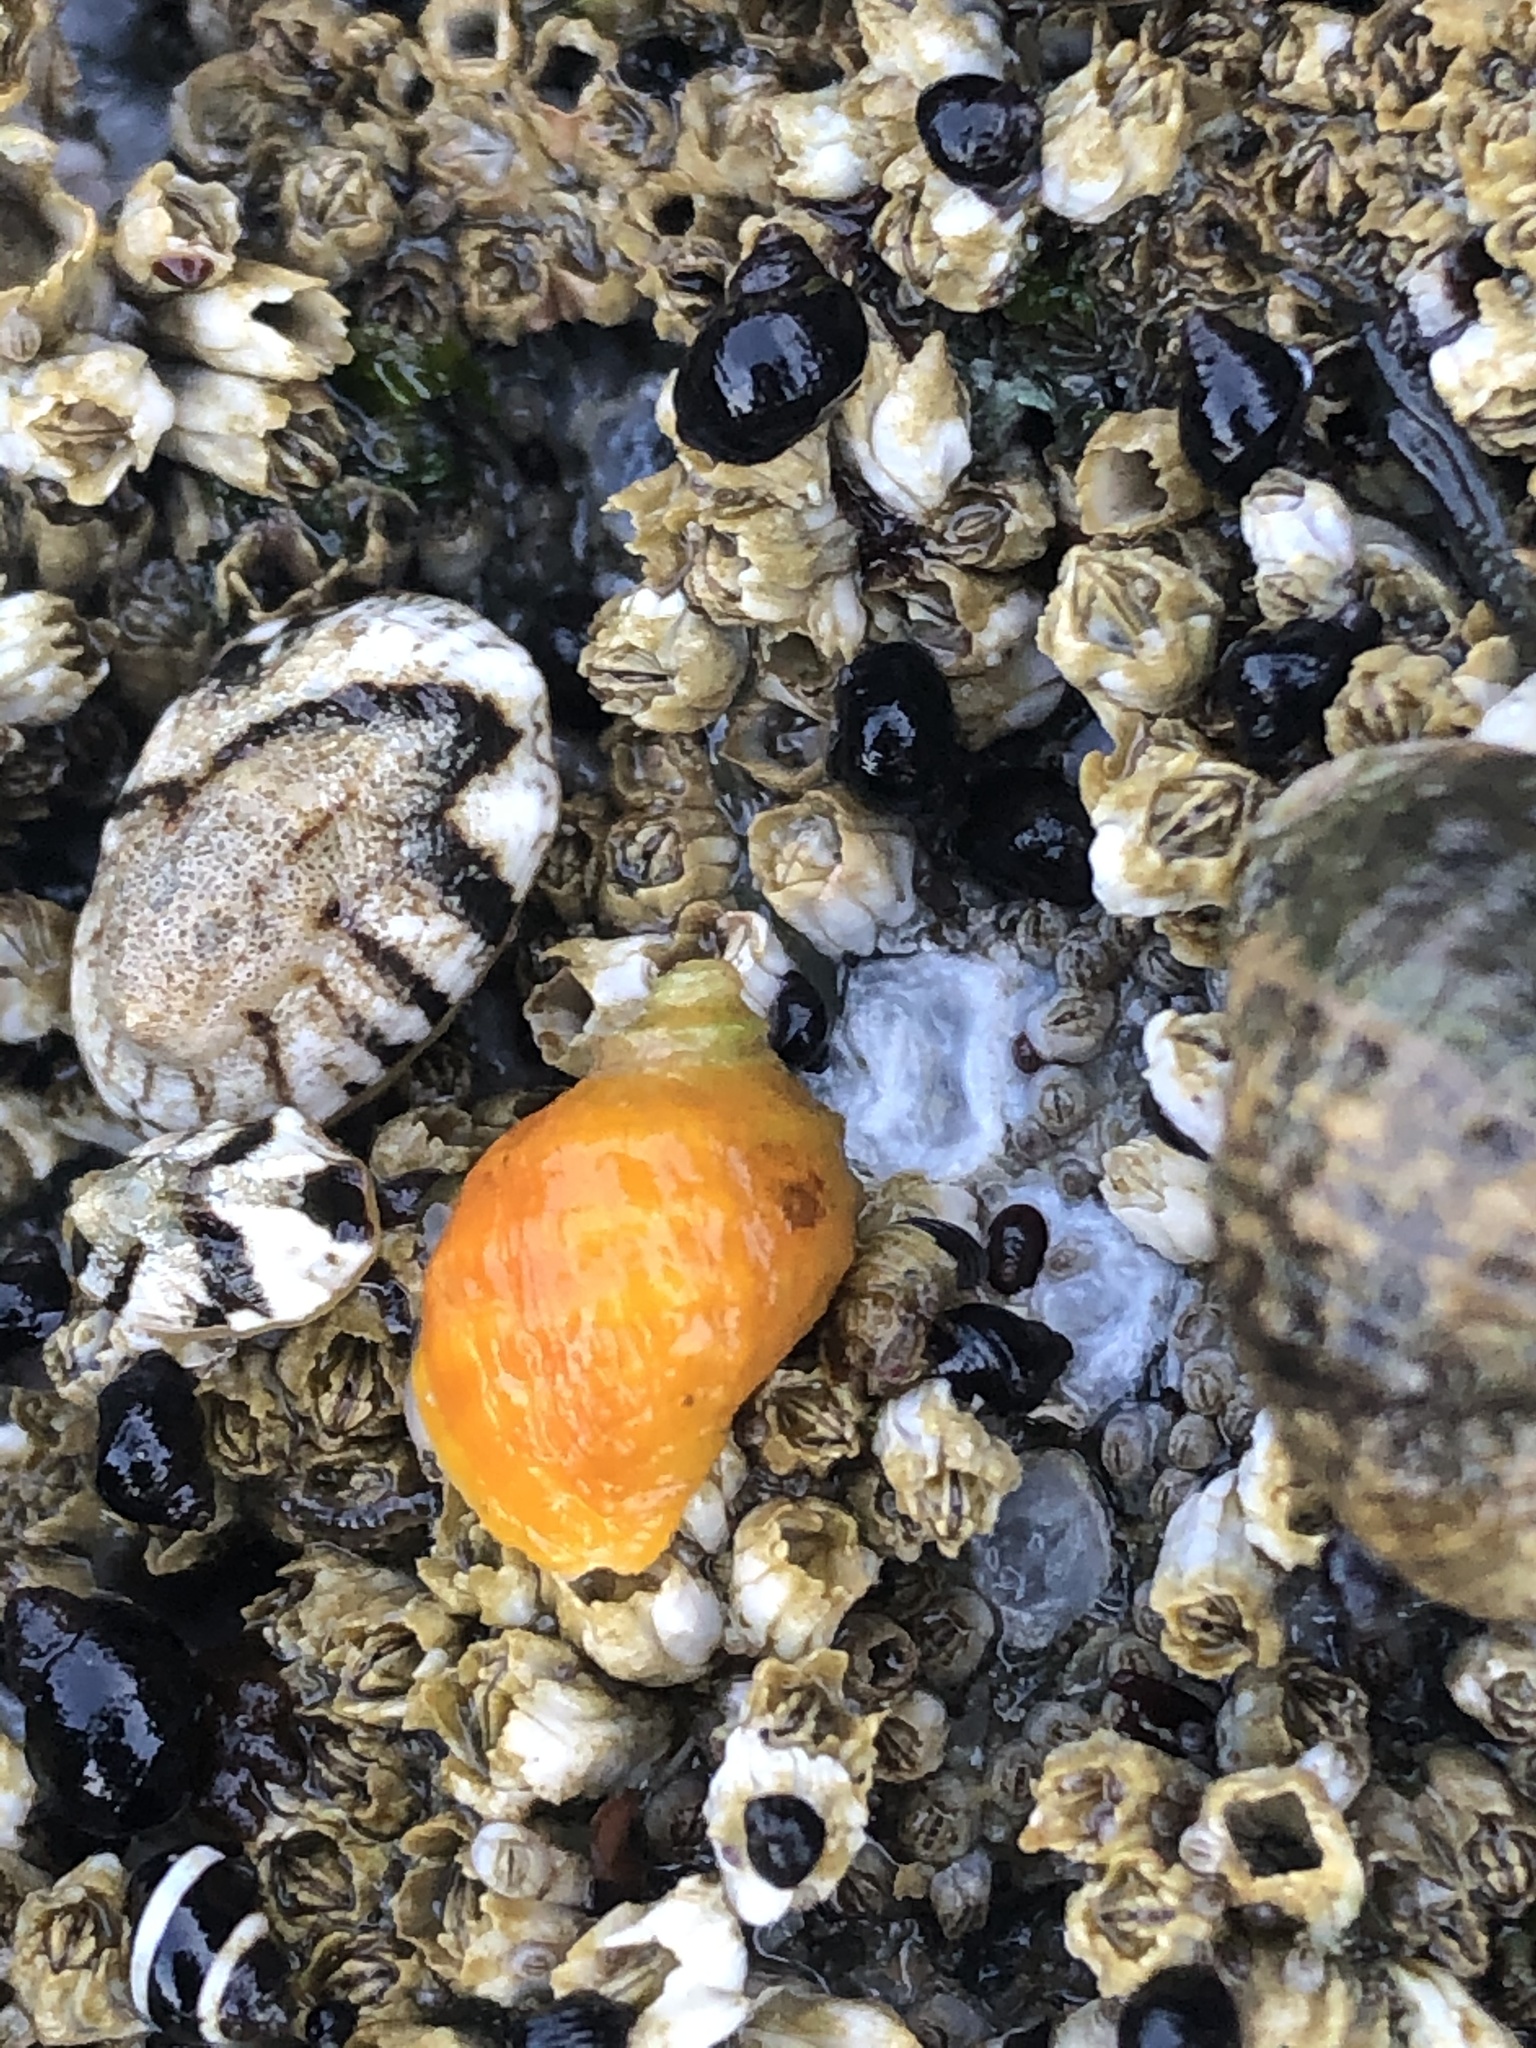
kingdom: Animalia
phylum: Mollusca
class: Gastropoda
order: Neogastropoda
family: Muricidae
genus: Nucella
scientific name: Nucella ostrina
